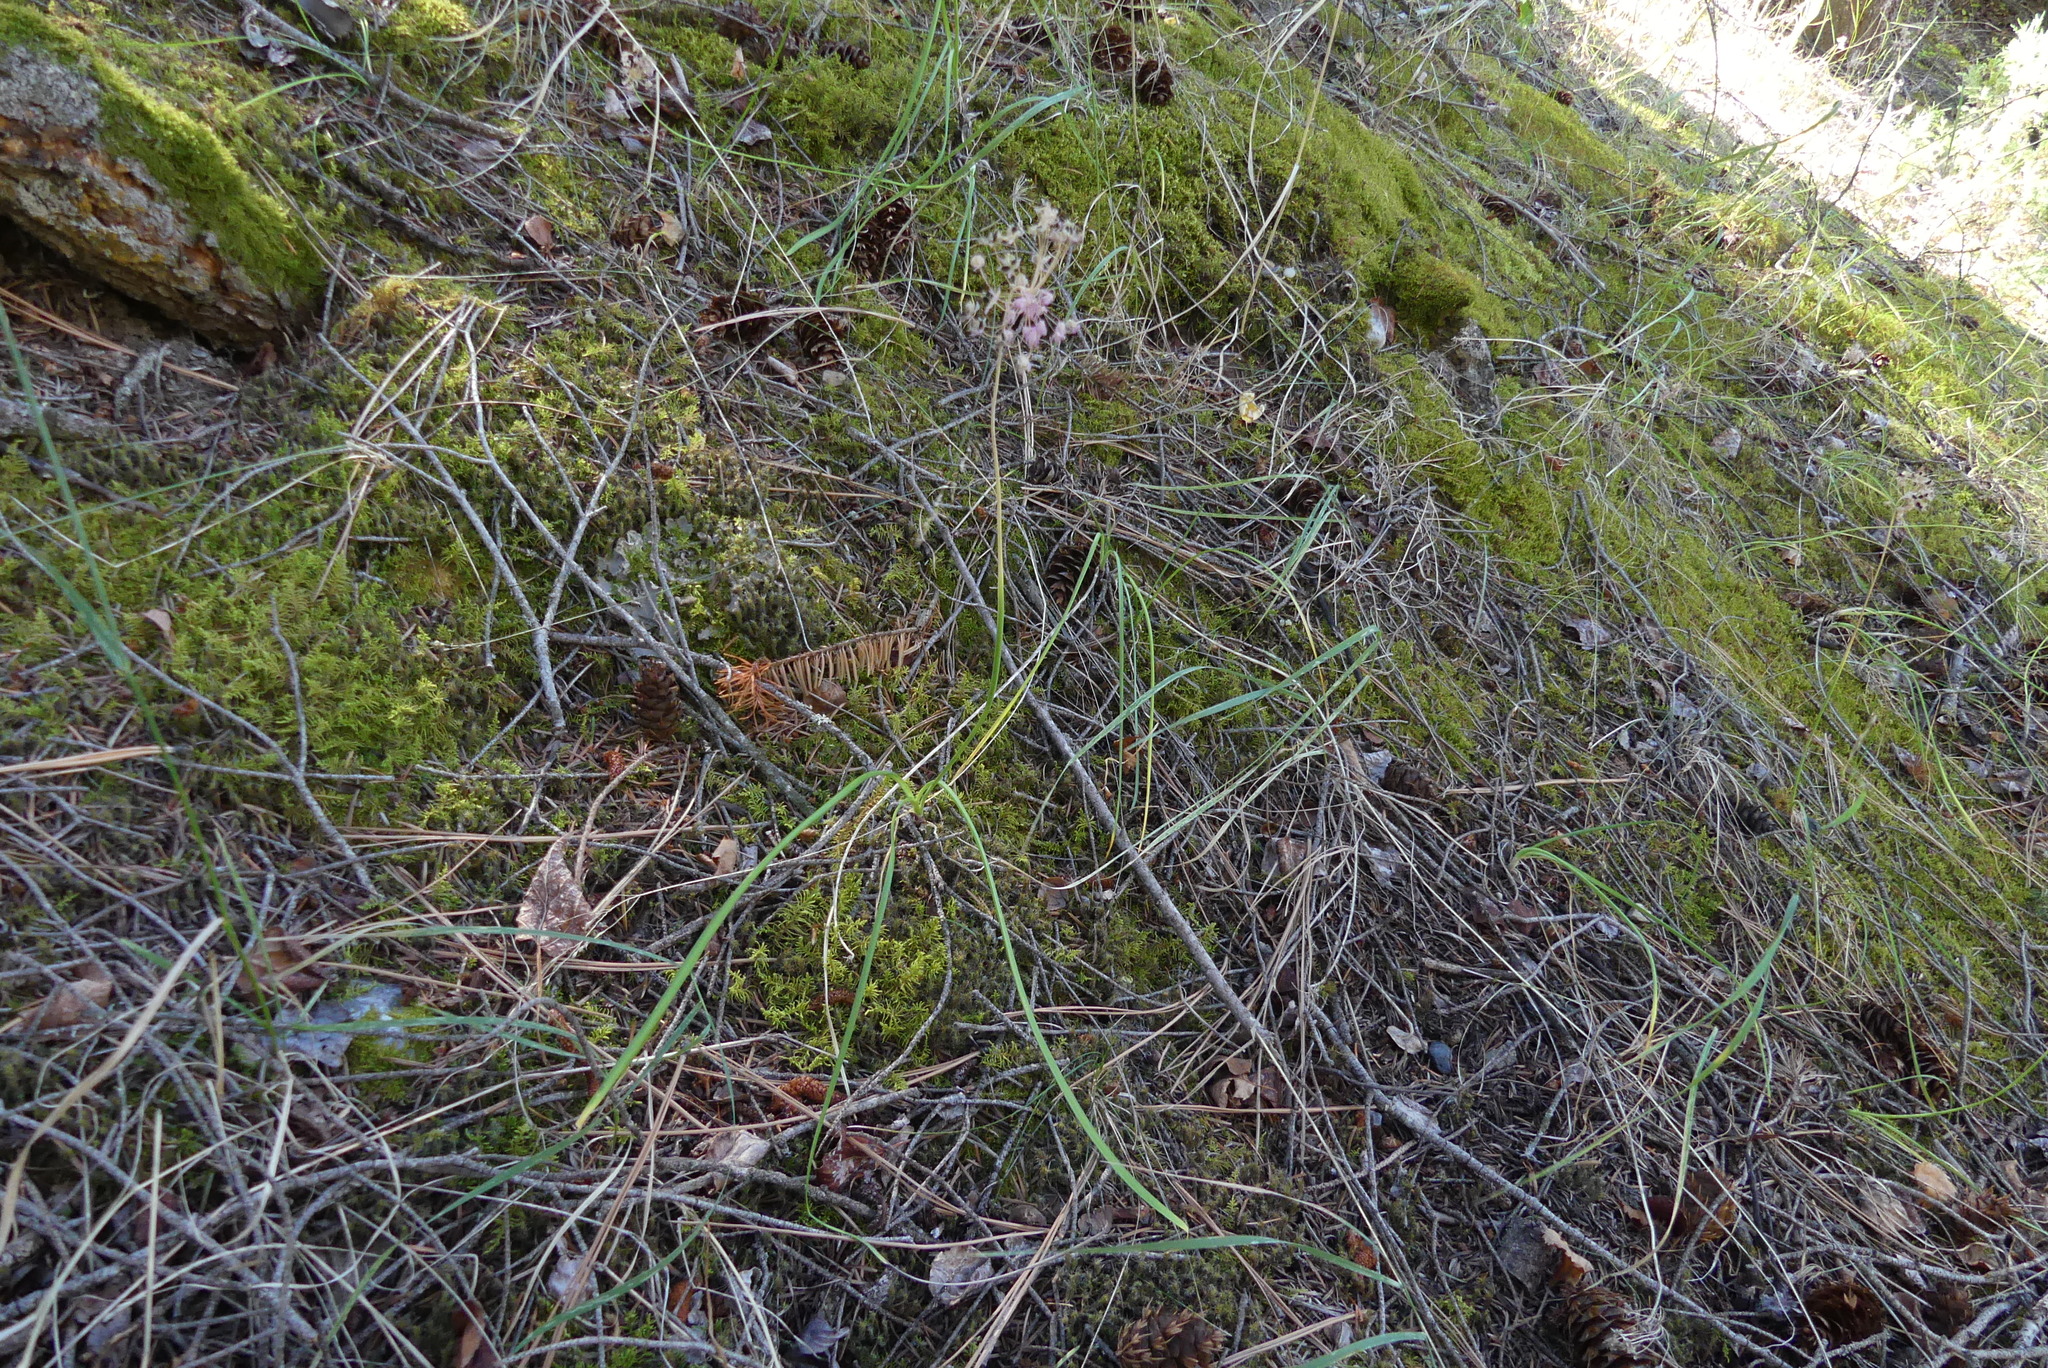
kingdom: Plantae
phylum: Tracheophyta
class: Liliopsida
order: Asparagales
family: Amaryllidaceae
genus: Allium
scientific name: Allium cernuum
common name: Nodding onion
